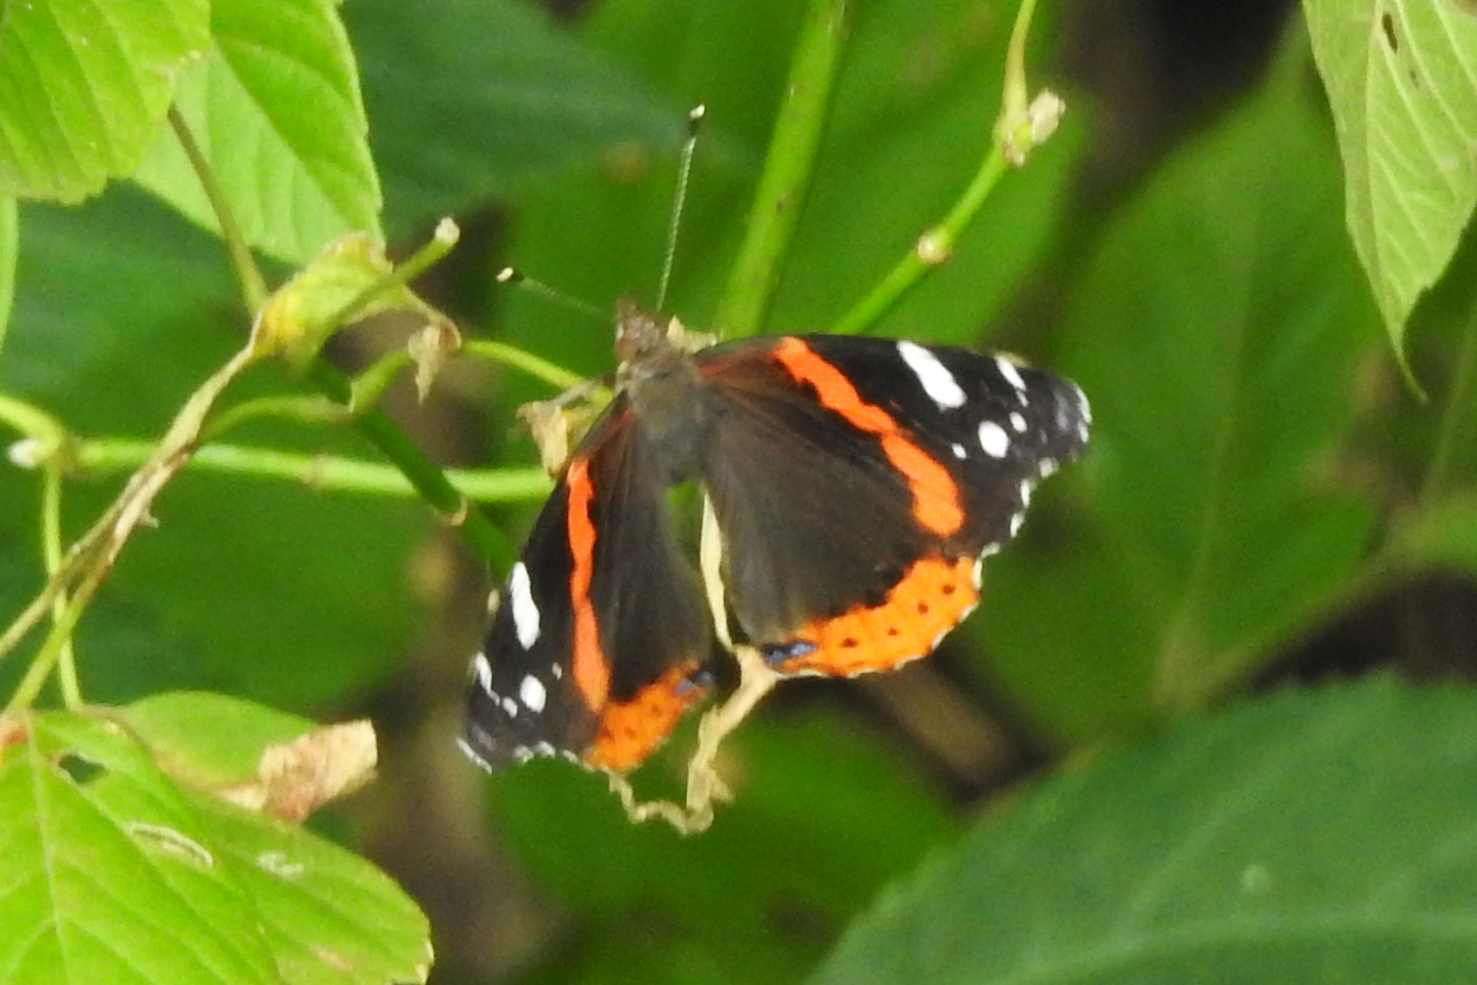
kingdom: Animalia
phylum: Arthropoda
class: Insecta
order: Lepidoptera
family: Nymphalidae
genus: Vanessa
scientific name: Vanessa atalanta
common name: Red admiral
